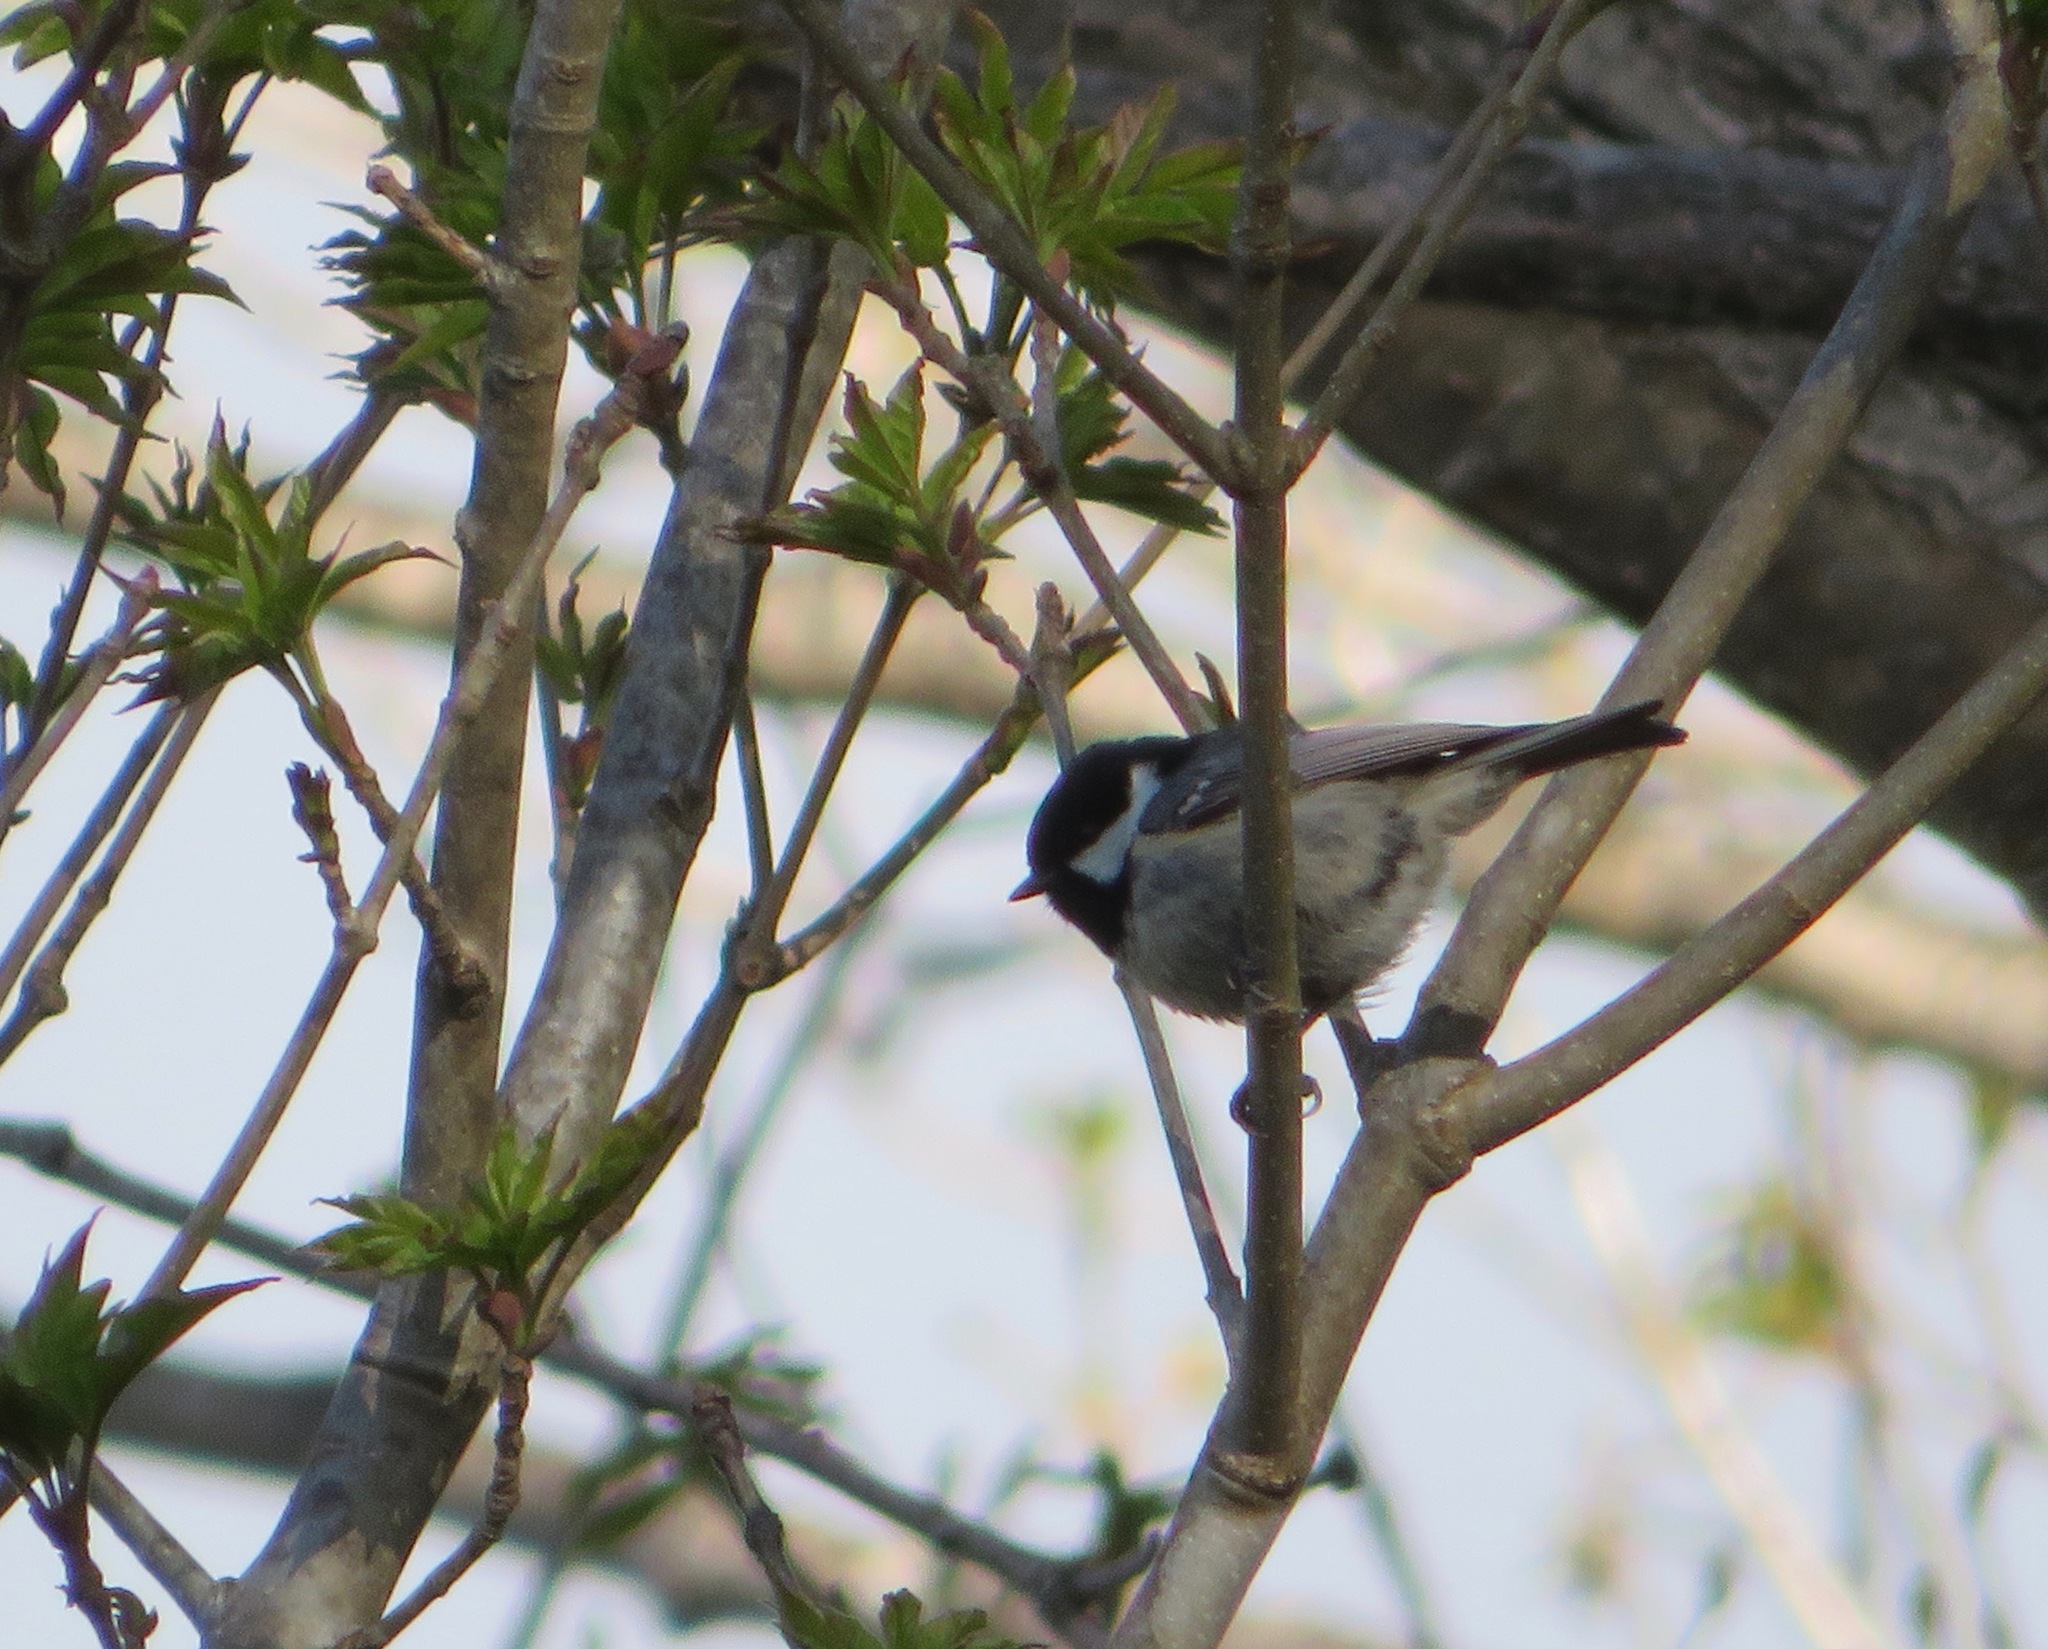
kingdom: Animalia
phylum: Chordata
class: Aves
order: Passeriformes
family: Paridae
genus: Periparus
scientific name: Periparus ater
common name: Coal tit
